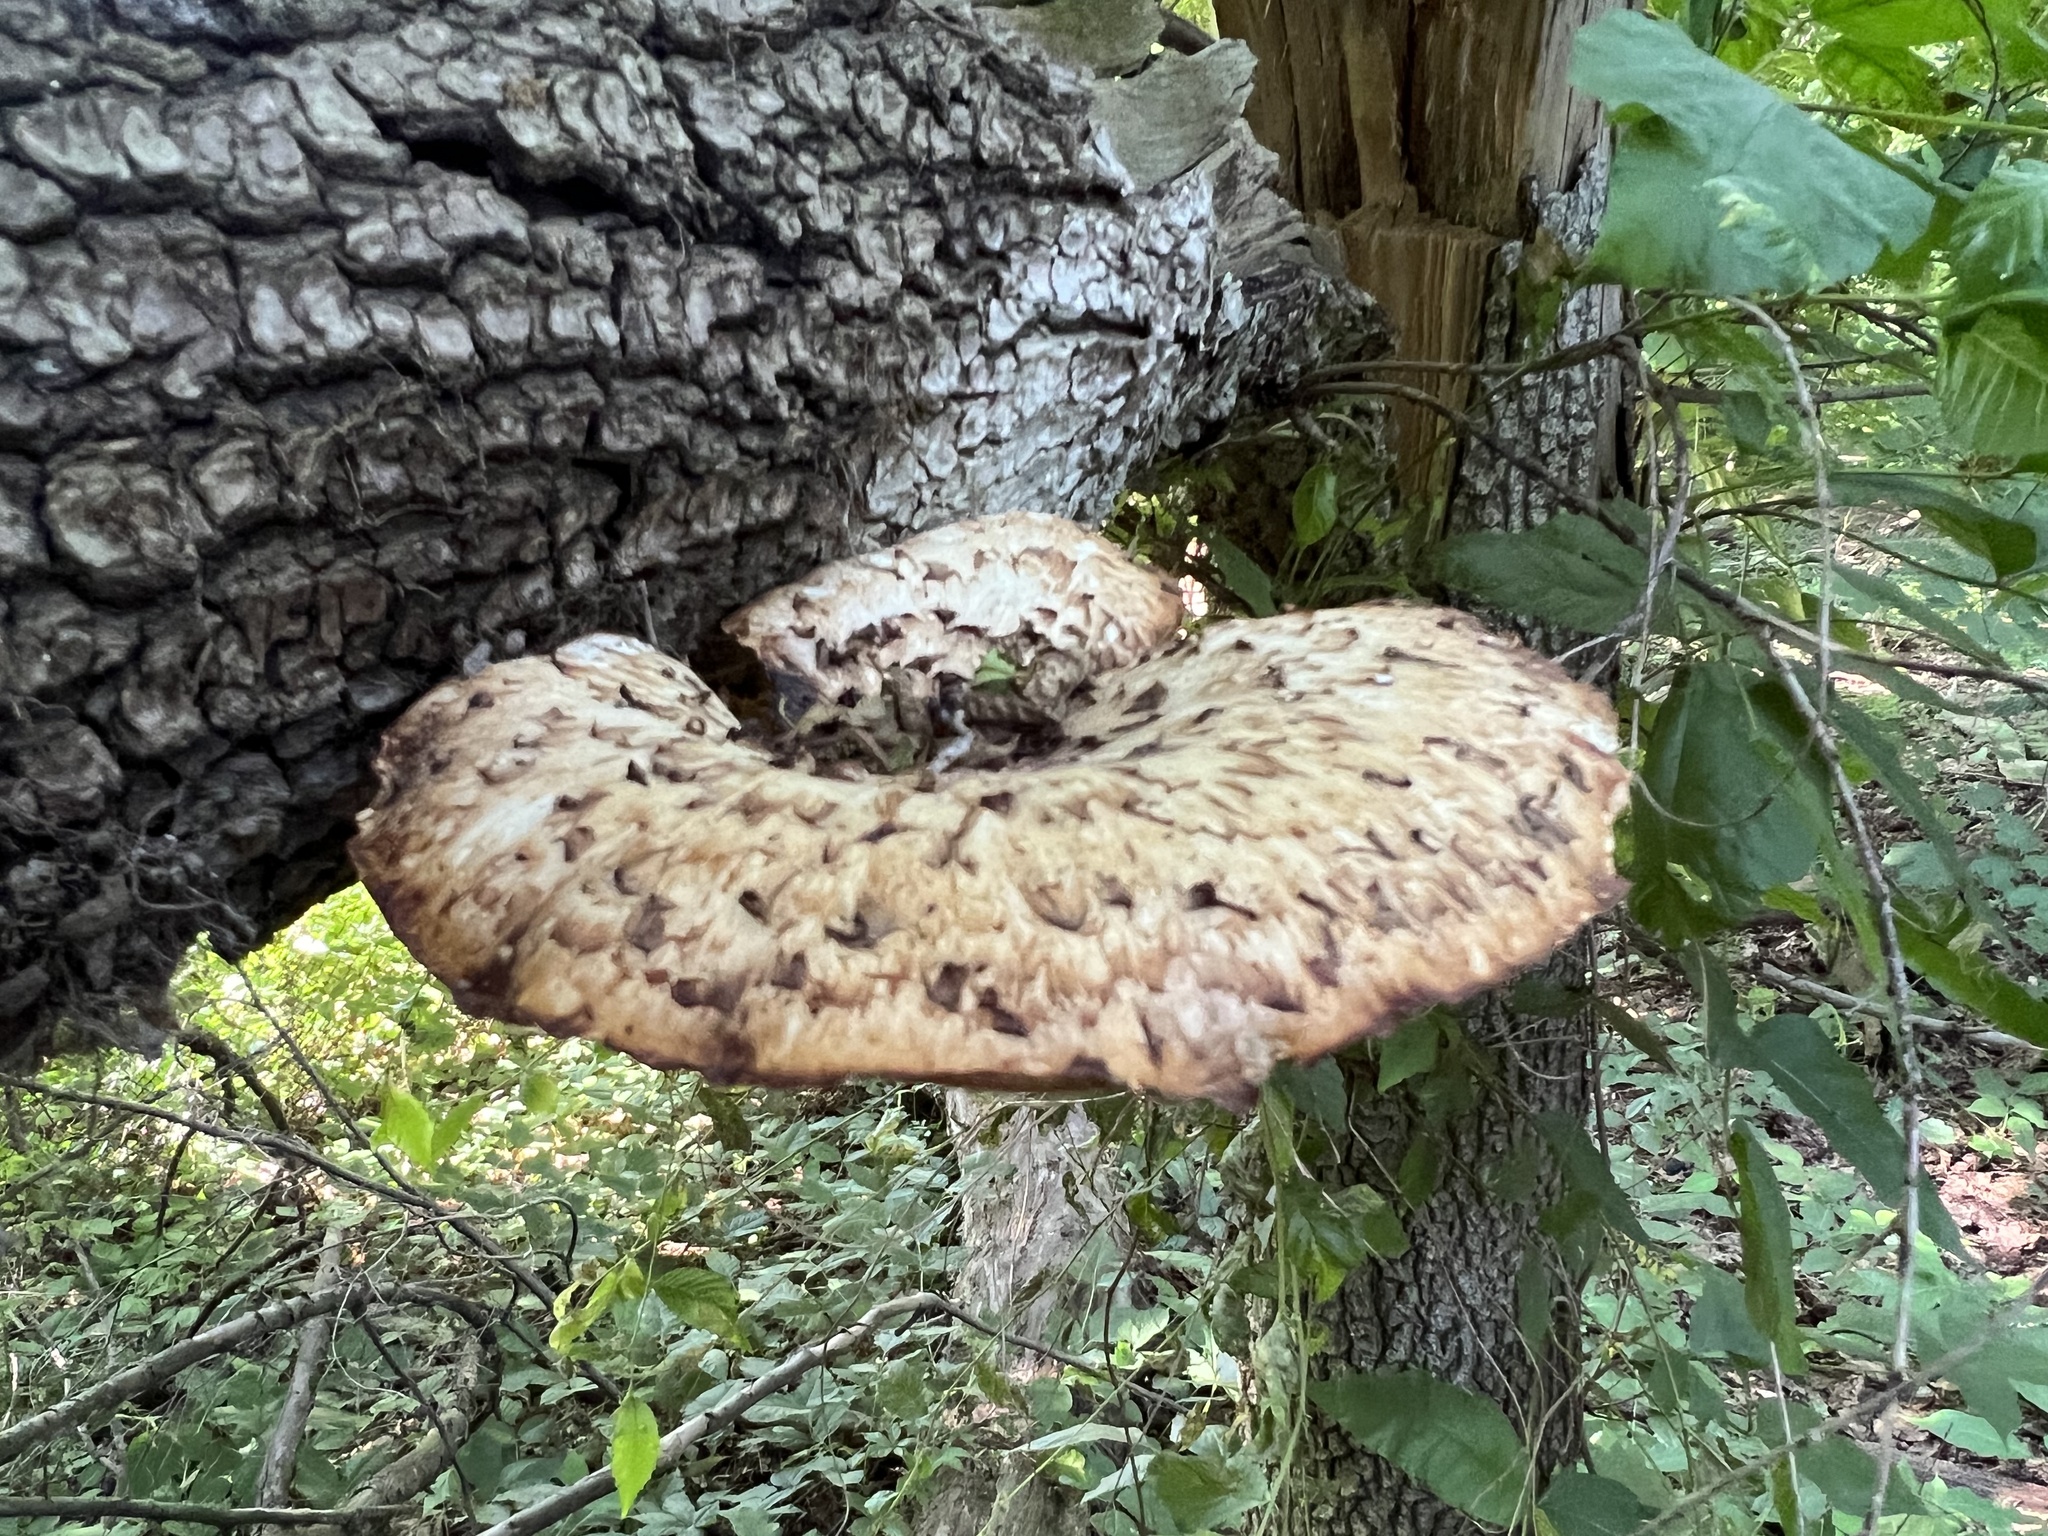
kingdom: Fungi
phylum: Basidiomycota
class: Agaricomycetes
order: Polyporales
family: Polyporaceae
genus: Cerioporus
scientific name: Cerioporus squamosus
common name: Dryad's saddle
